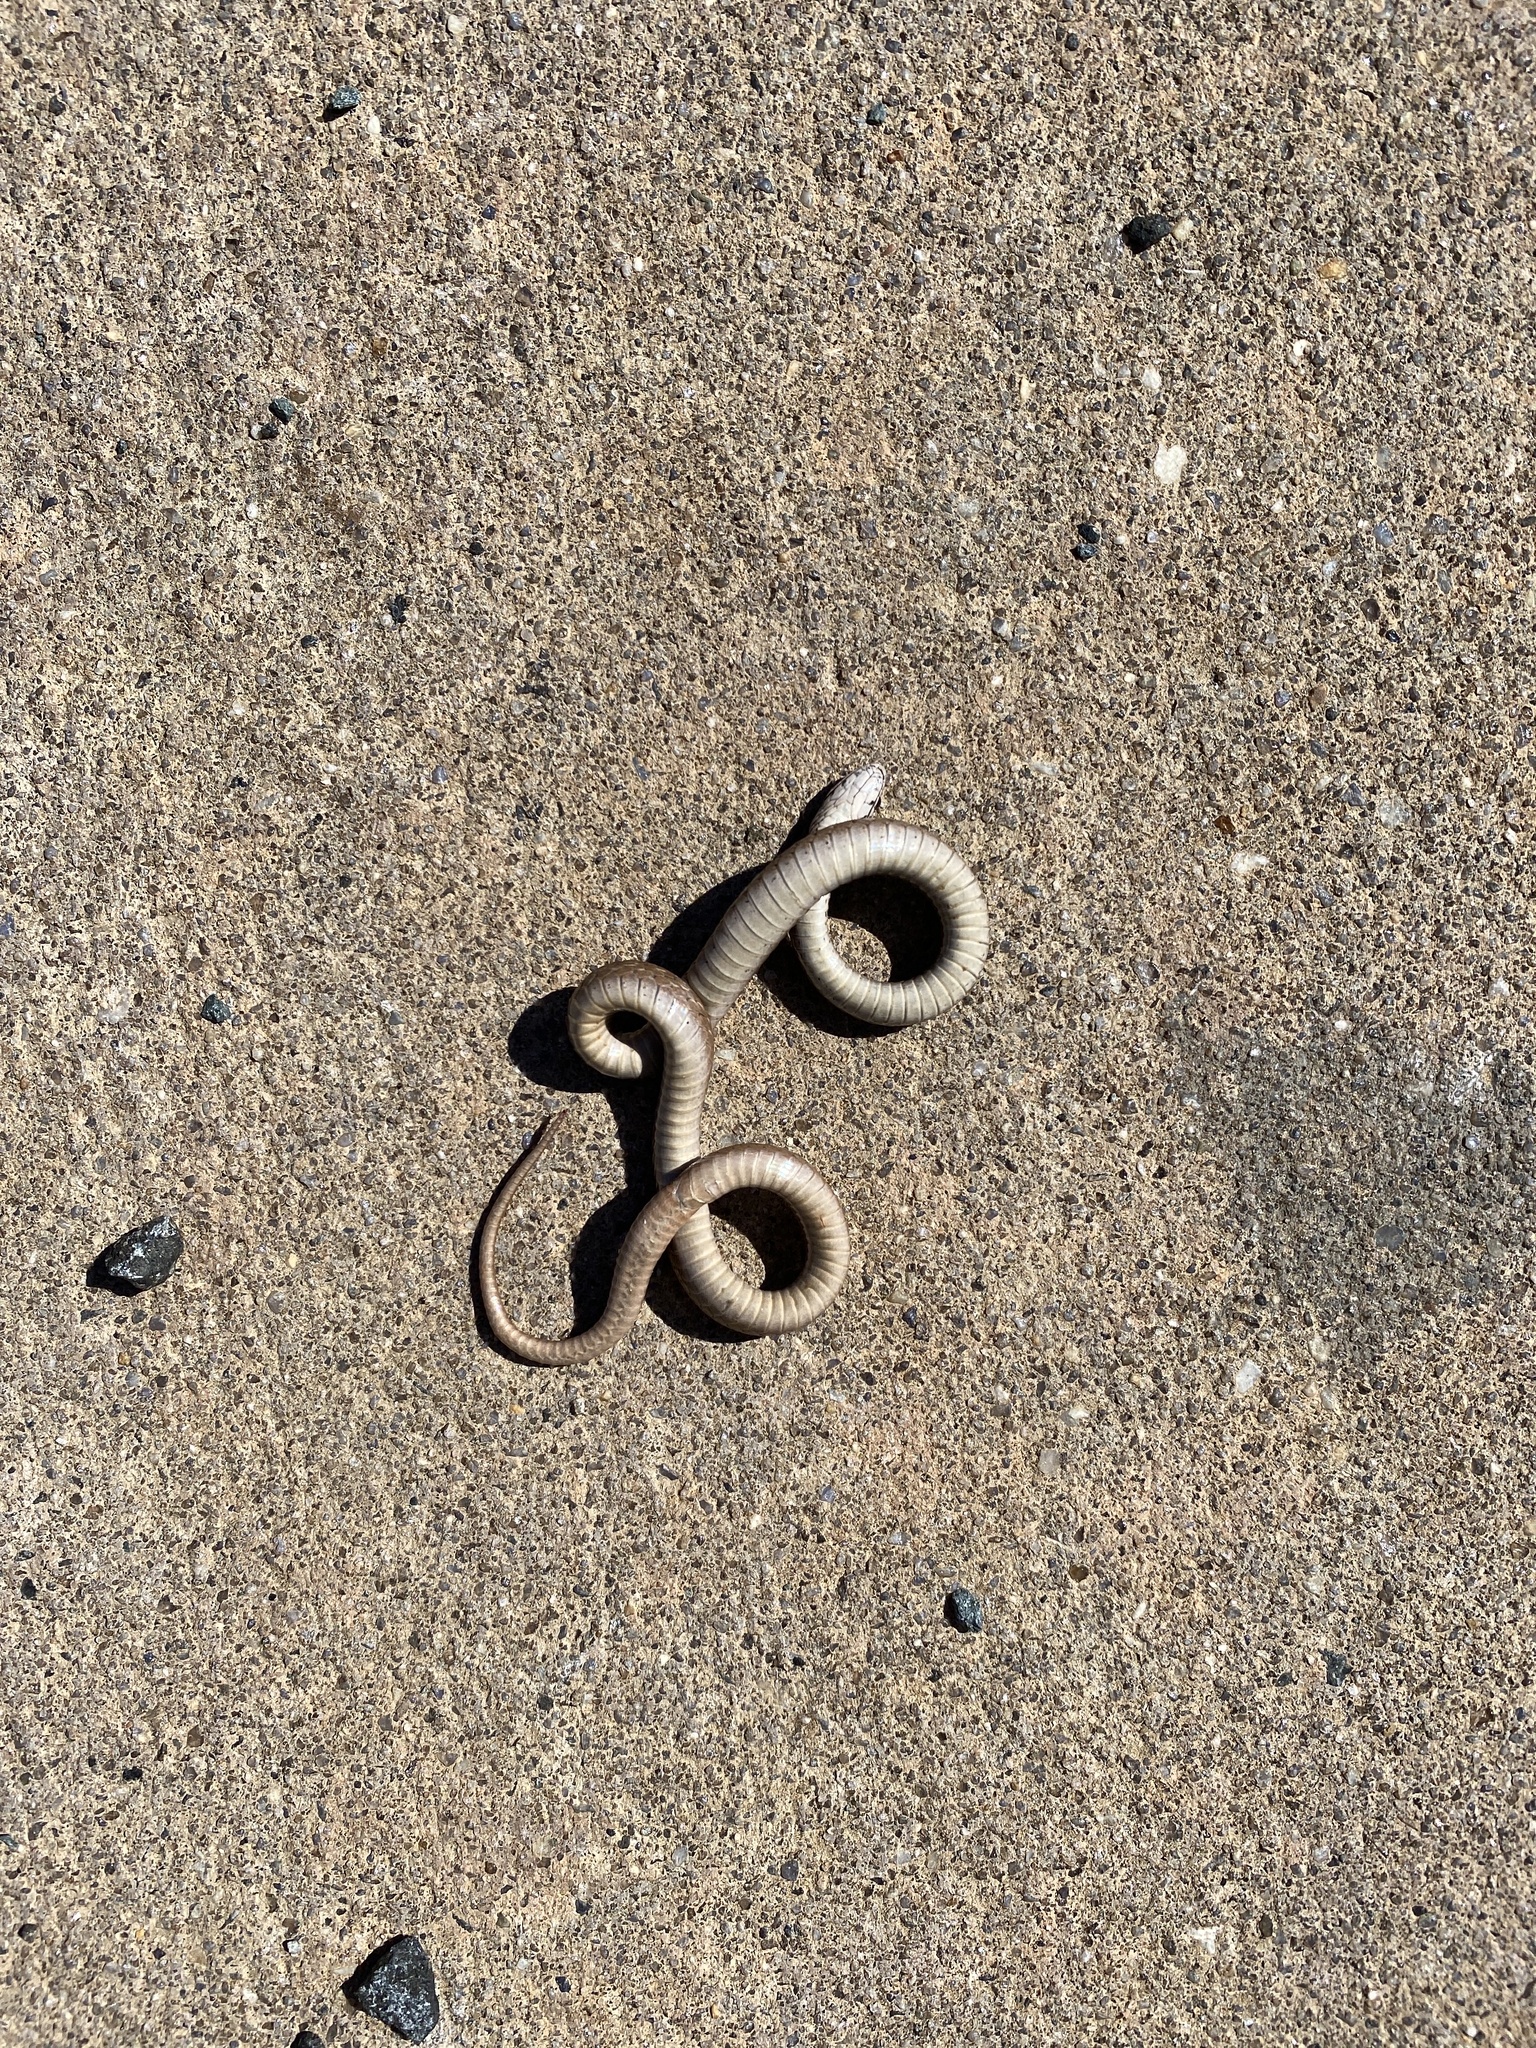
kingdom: Animalia
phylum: Chordata
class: Squamata
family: Colubridae
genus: Storeria
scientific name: Storeria dekayi
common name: (dekay’s) brown snake
